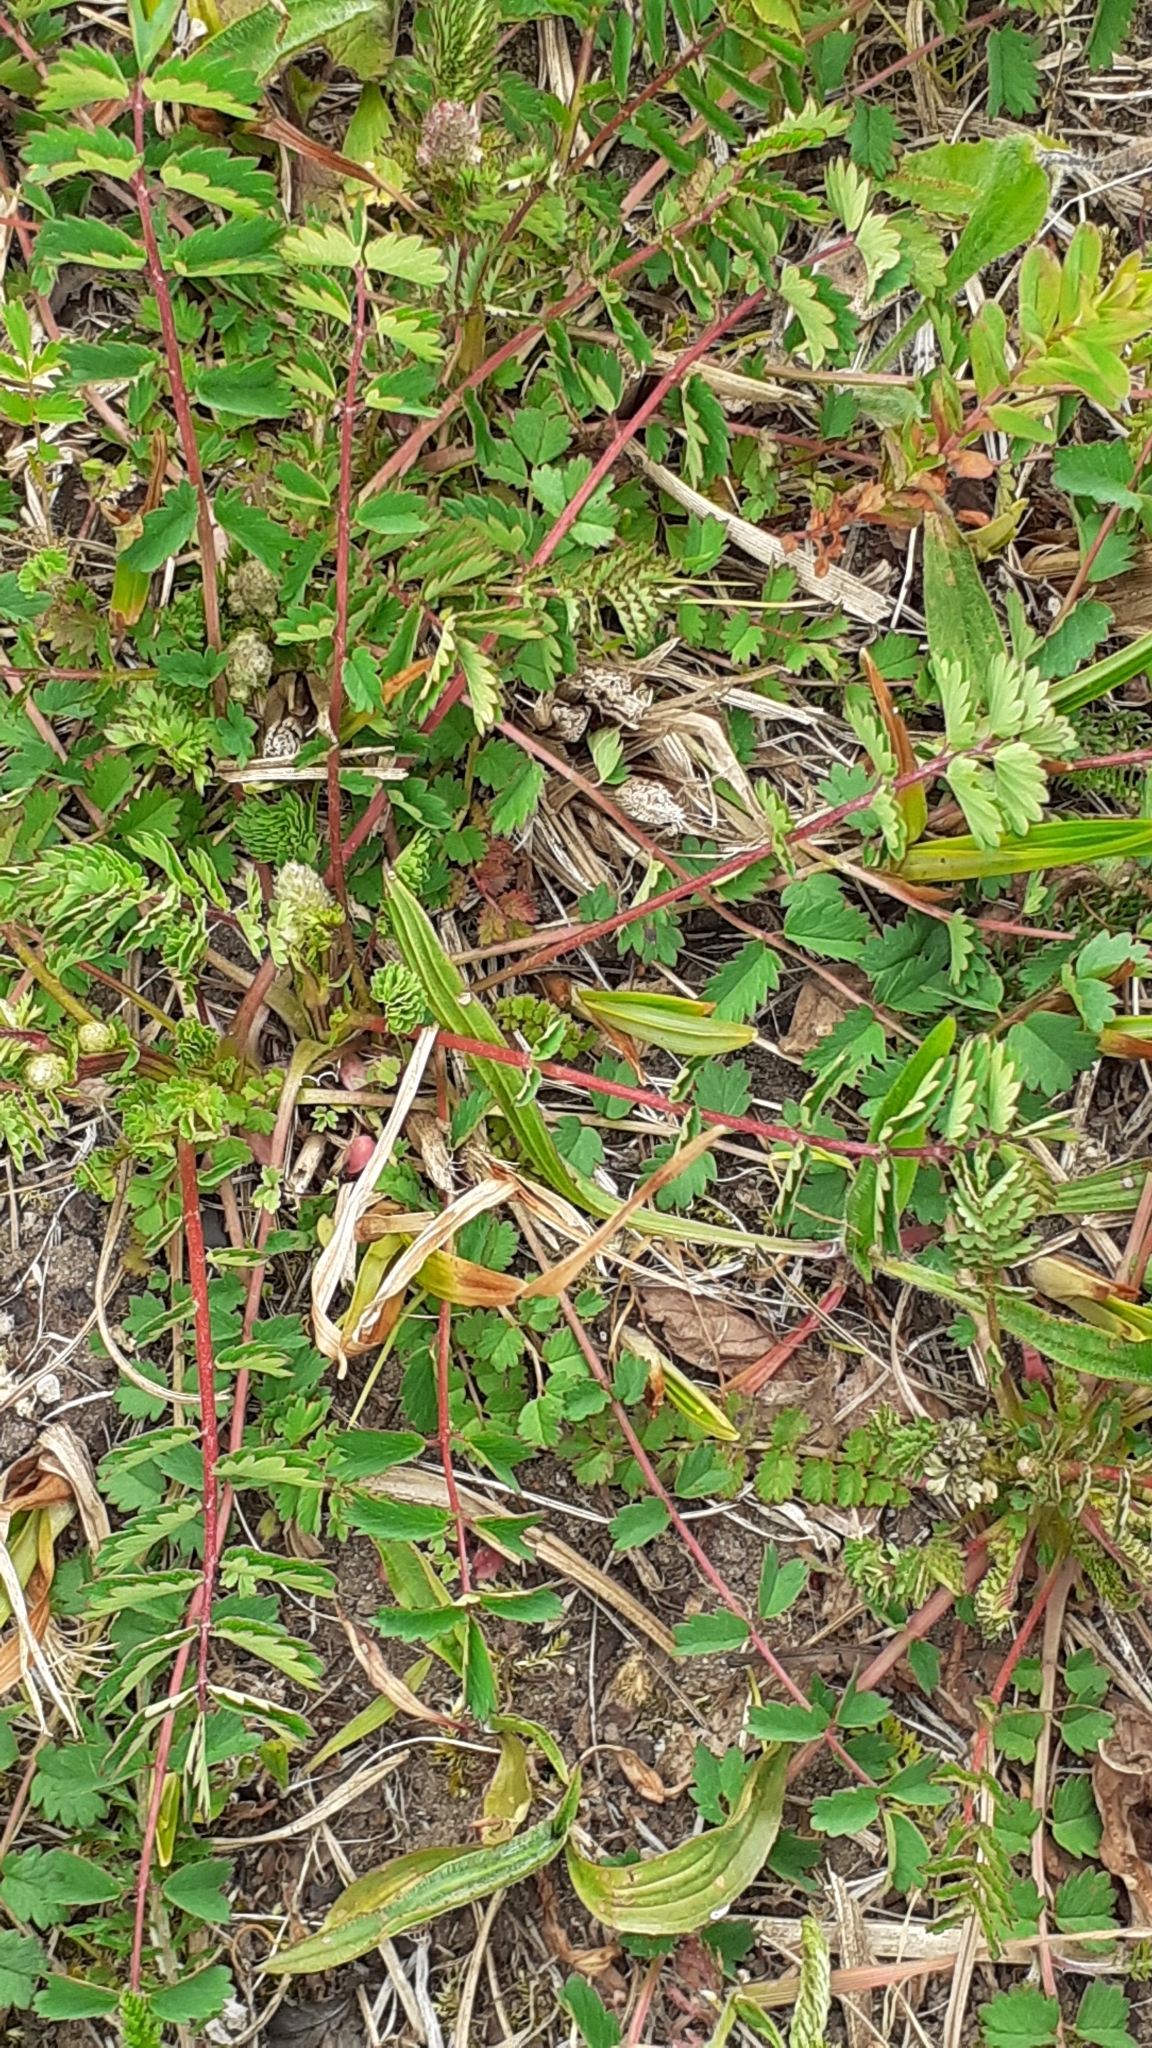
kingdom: Plantae
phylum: Tracheophyta
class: Magnoliopsida
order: Rosales
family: Rosaceae
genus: Poterium
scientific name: Poterium sanguisorba
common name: Salad burnet
